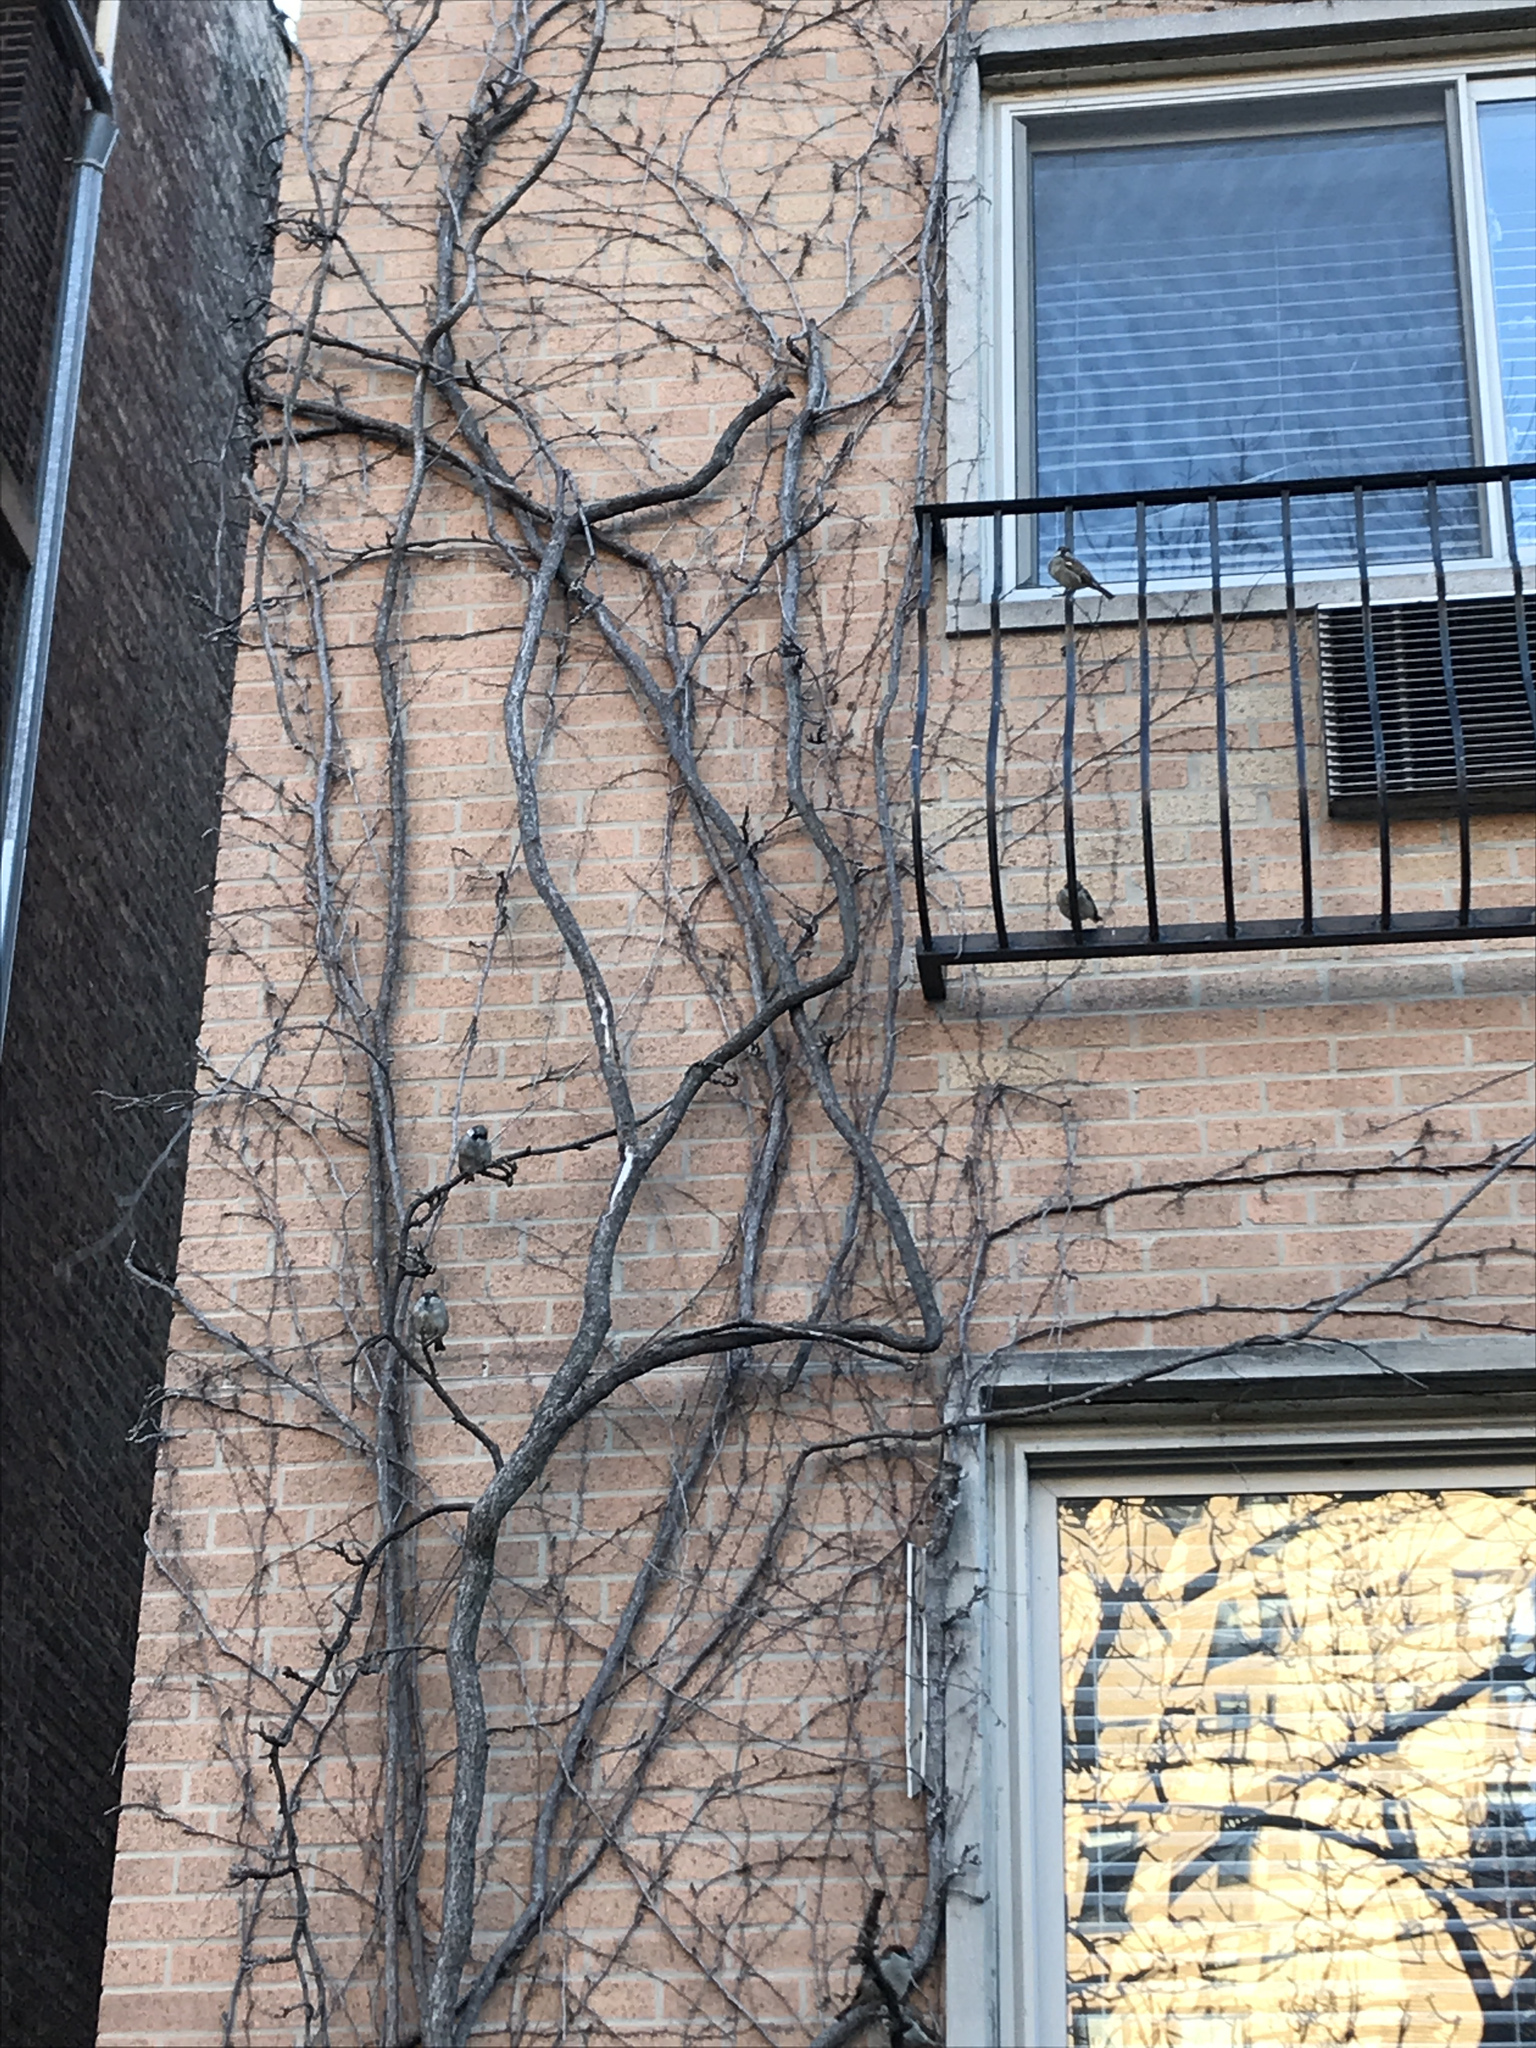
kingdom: Animalia
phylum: Chordata
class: Aves
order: Passeriformes
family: Passeridae
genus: Passer
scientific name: Passer domesticus
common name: House sparrow
